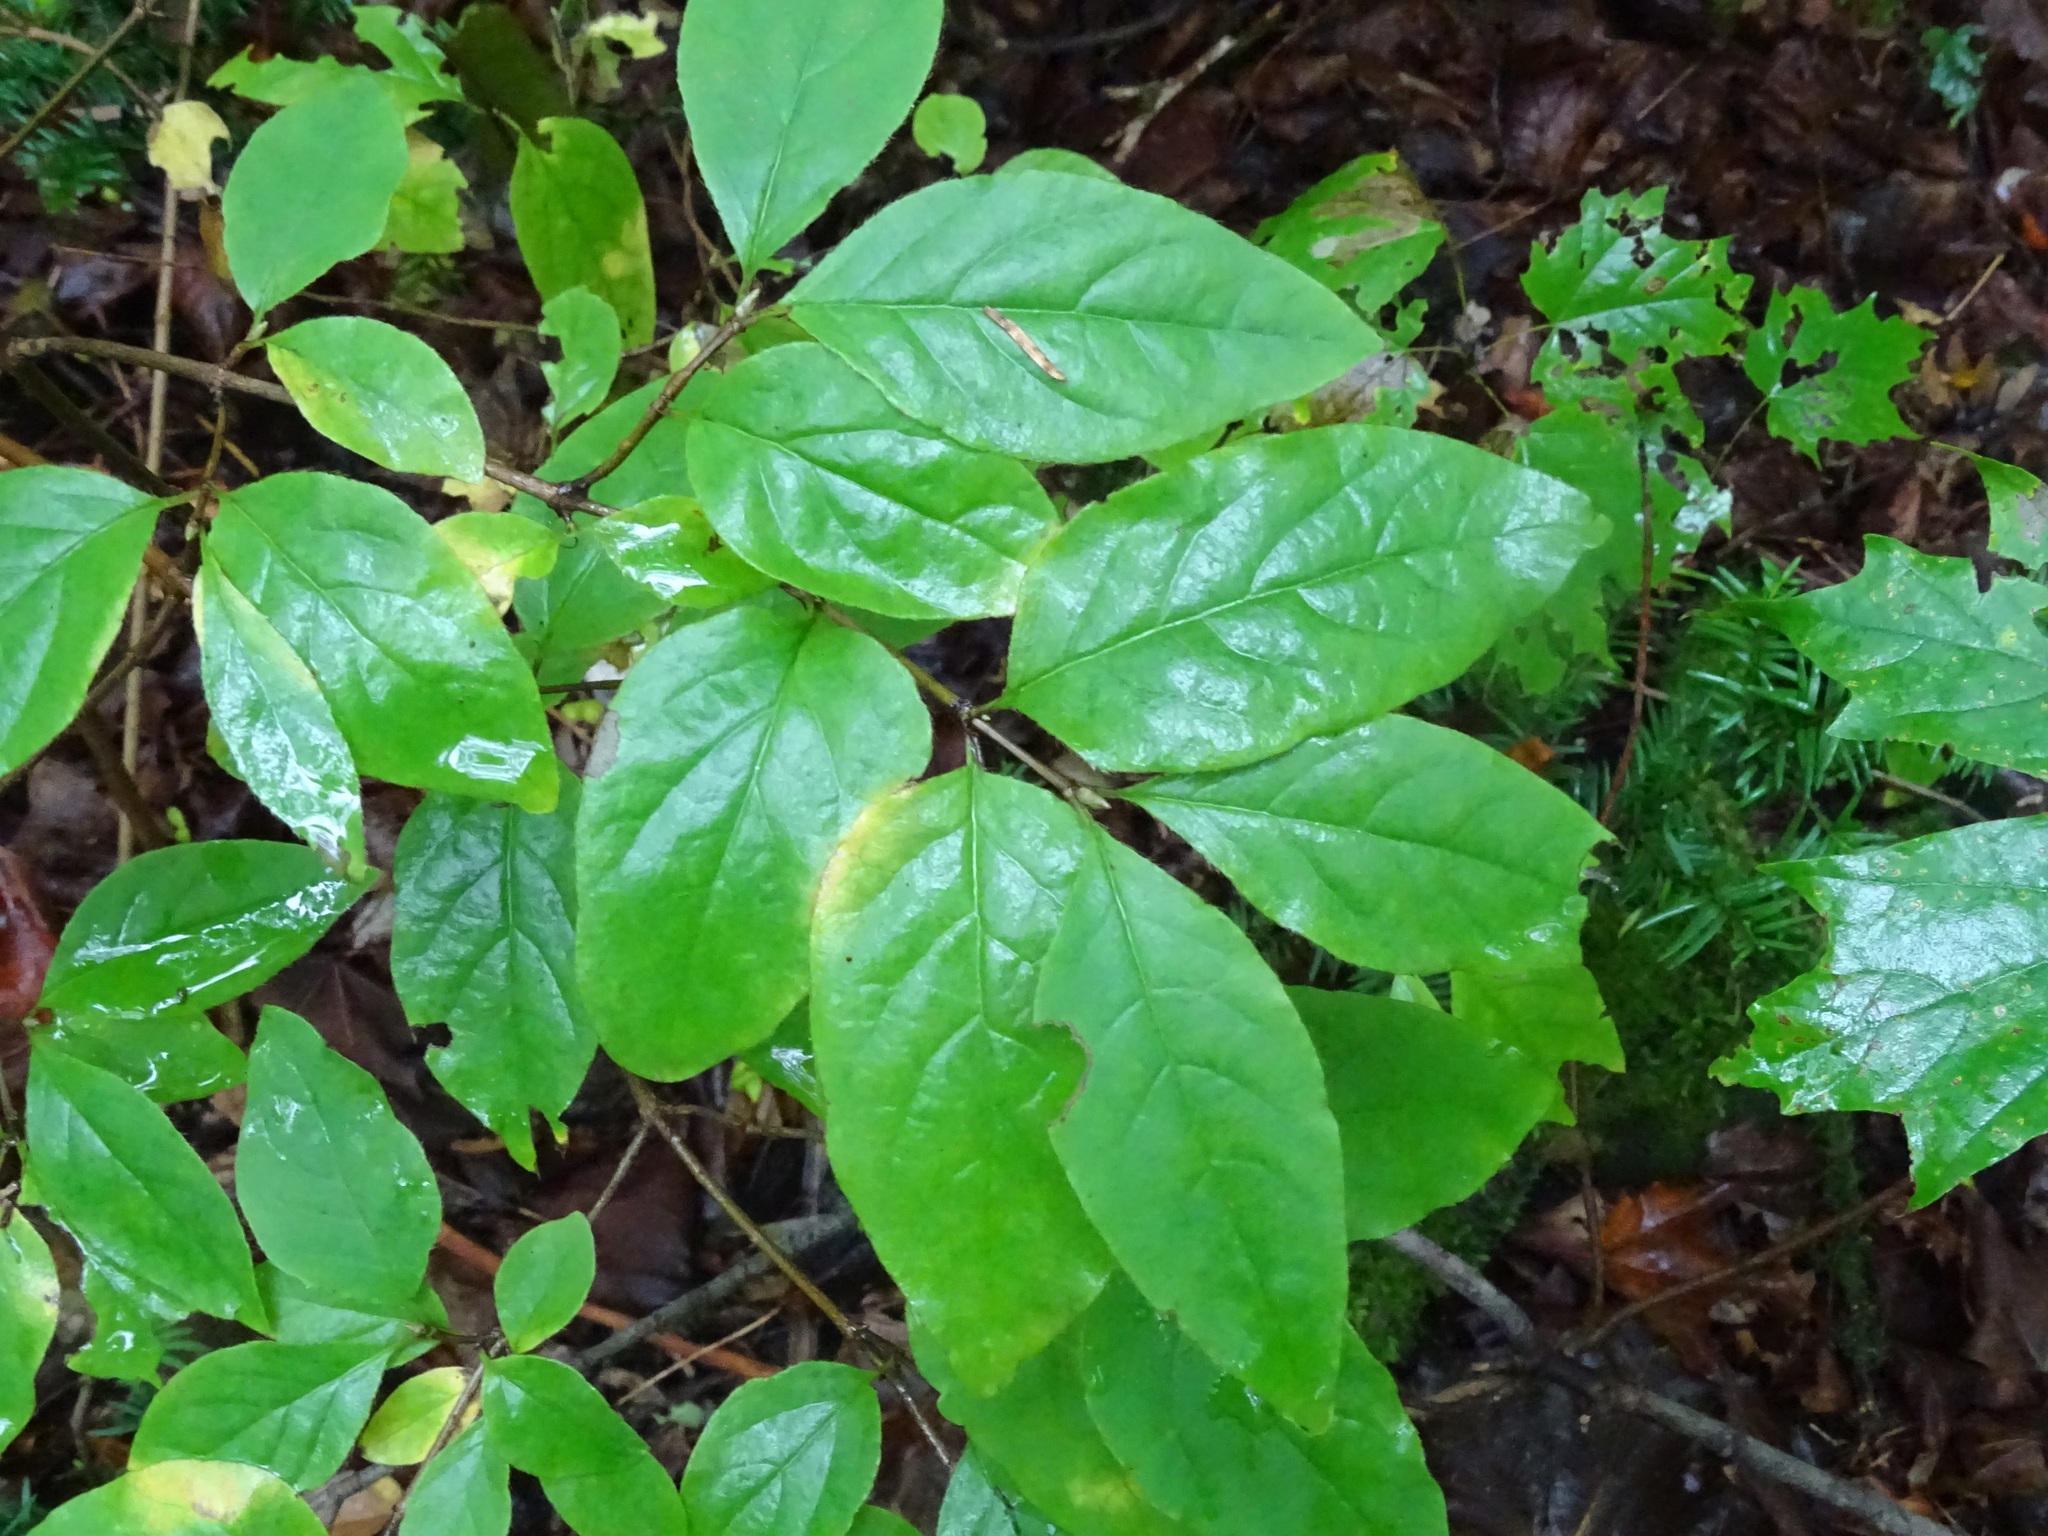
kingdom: Plantae
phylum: Tracheophyta
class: Magnoliopsida
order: Dipsacales
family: Caprifoliaceae
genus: Lonicera
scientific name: Lonicera canadensis
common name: American fly-honeysuckle
